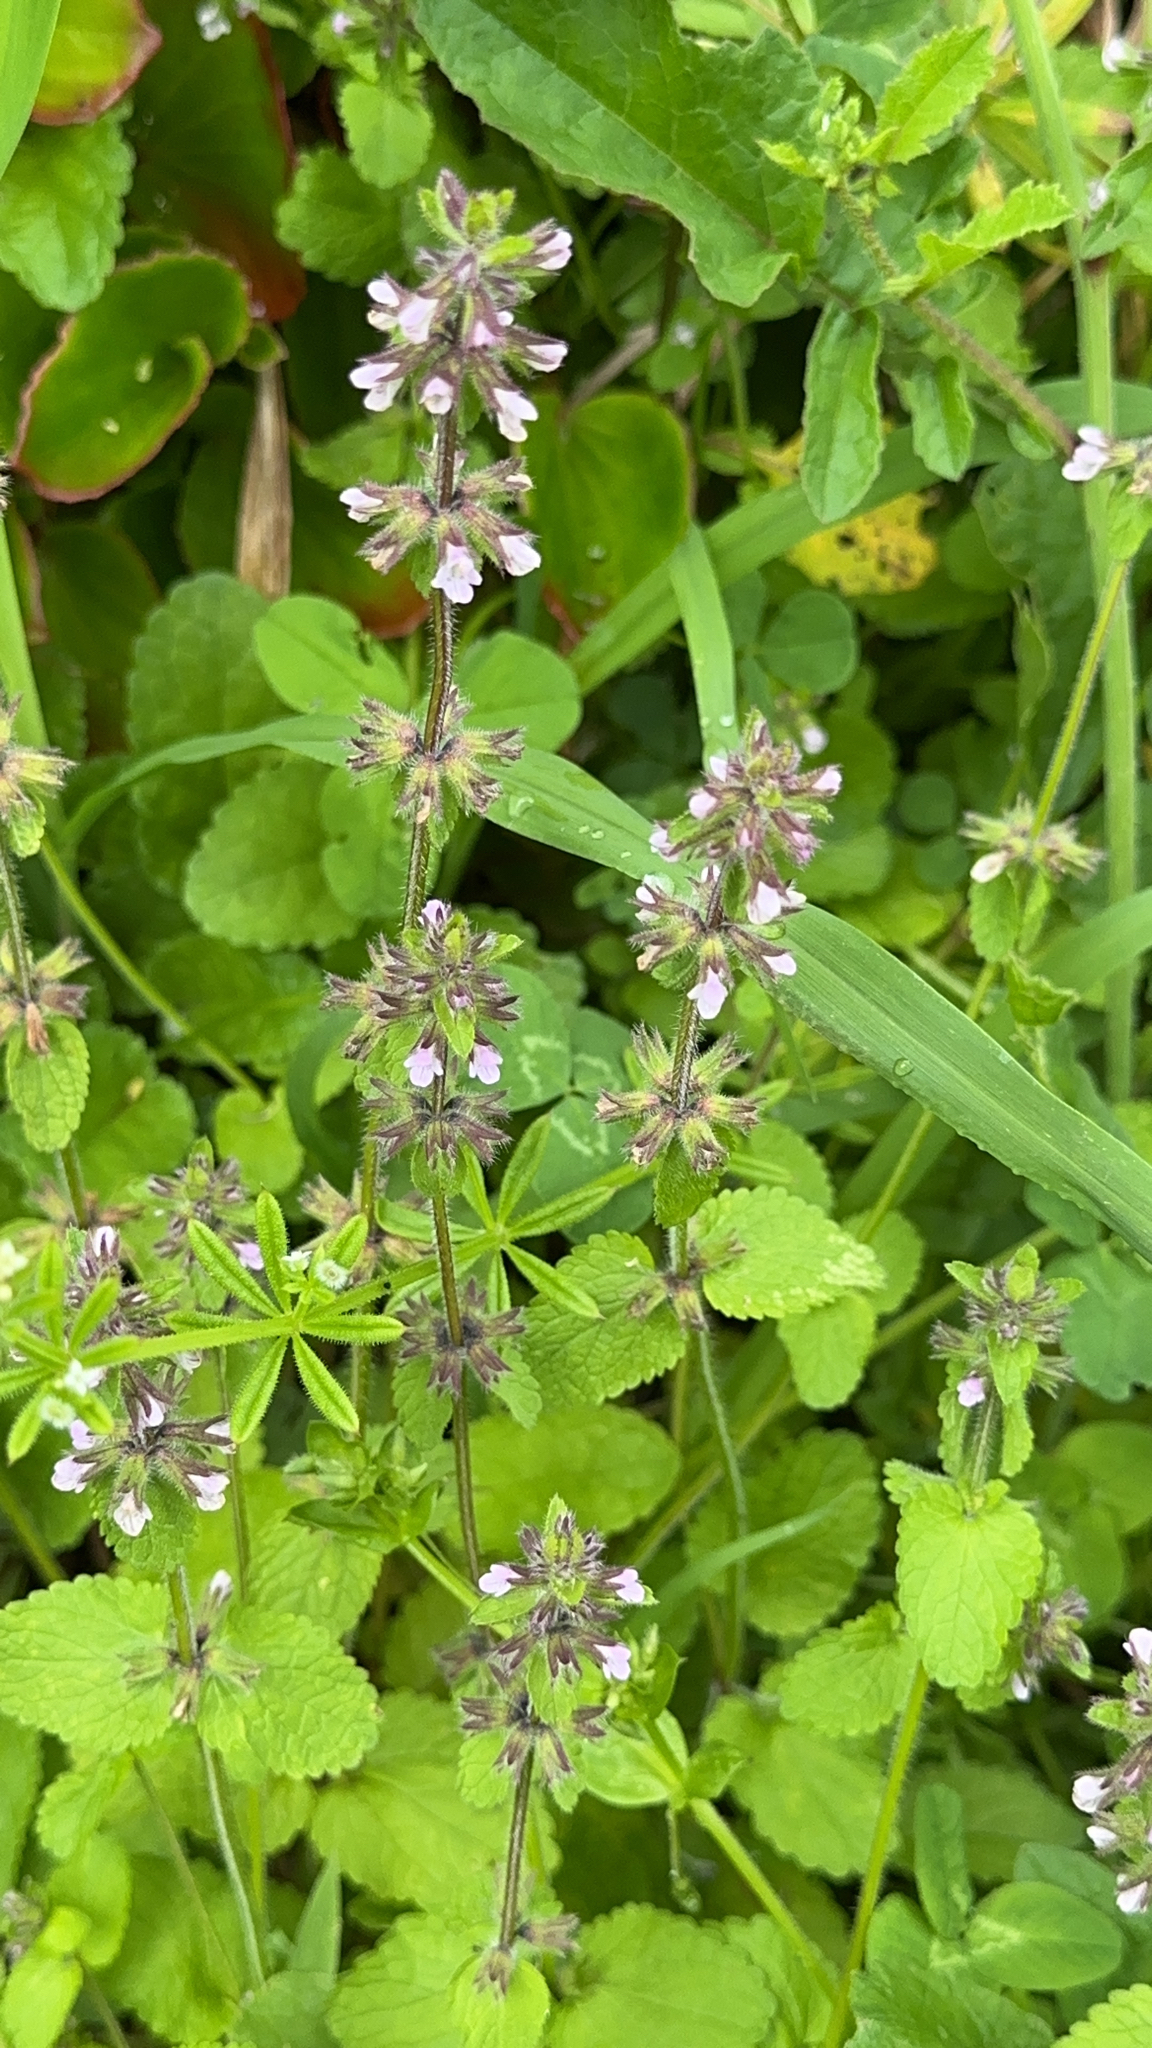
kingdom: Plantae
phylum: Tracheophyta
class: Magnoliopsida
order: Lamiales
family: Lamiaceae
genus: Stachys
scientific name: Stachys arvensis
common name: Field woundwort
